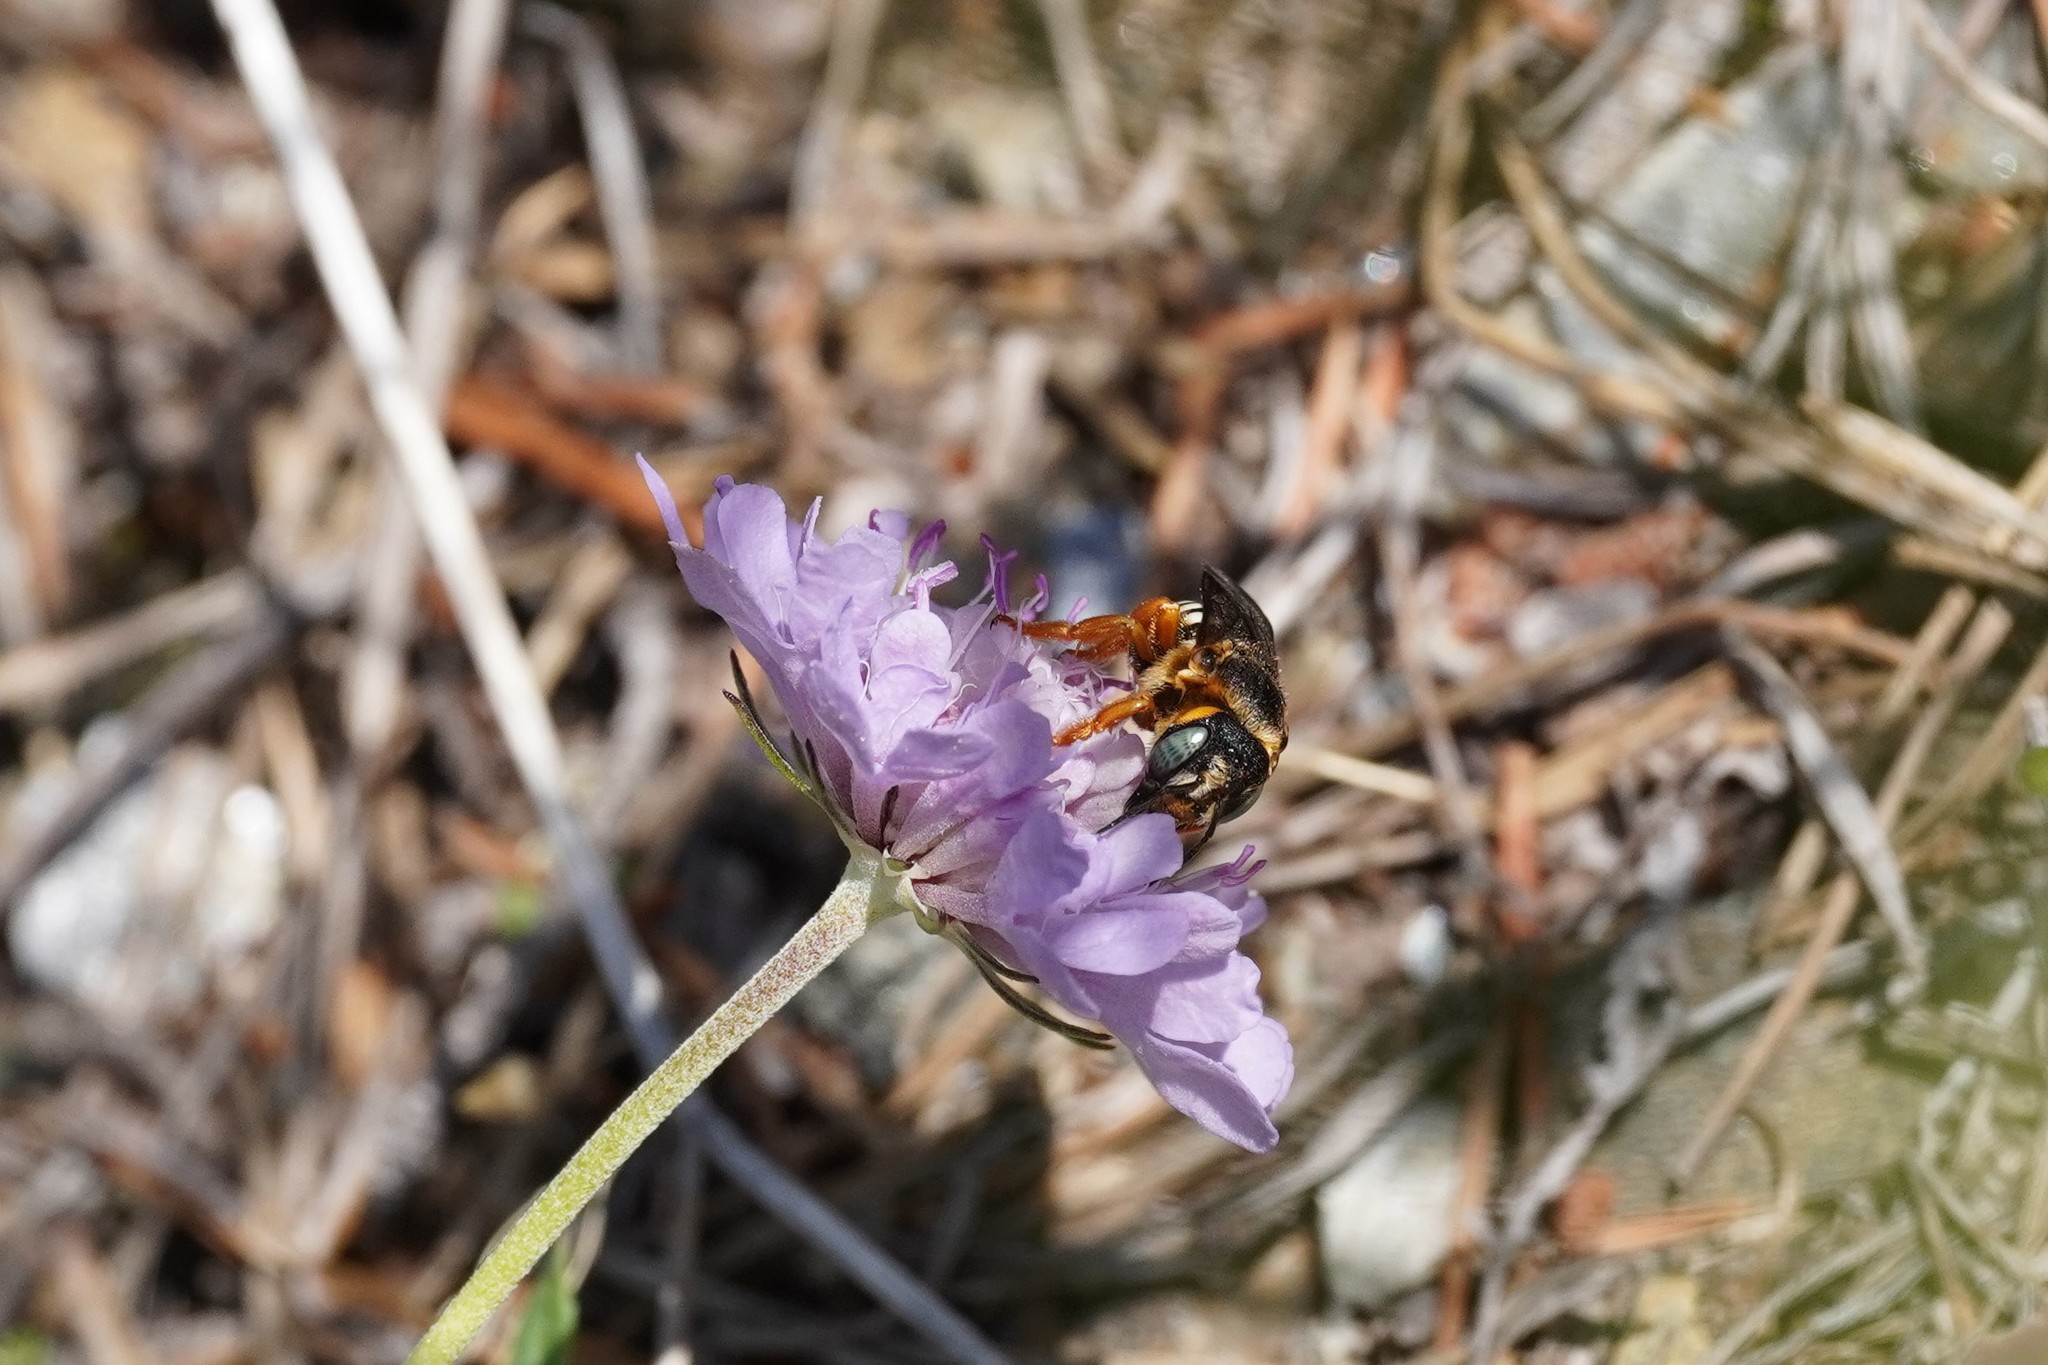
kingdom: Animalia
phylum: Arthropoda
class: Insecta
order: Hymenoptera
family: Megachilidae
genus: Icteranthidium
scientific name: Icteranthidium laterale
